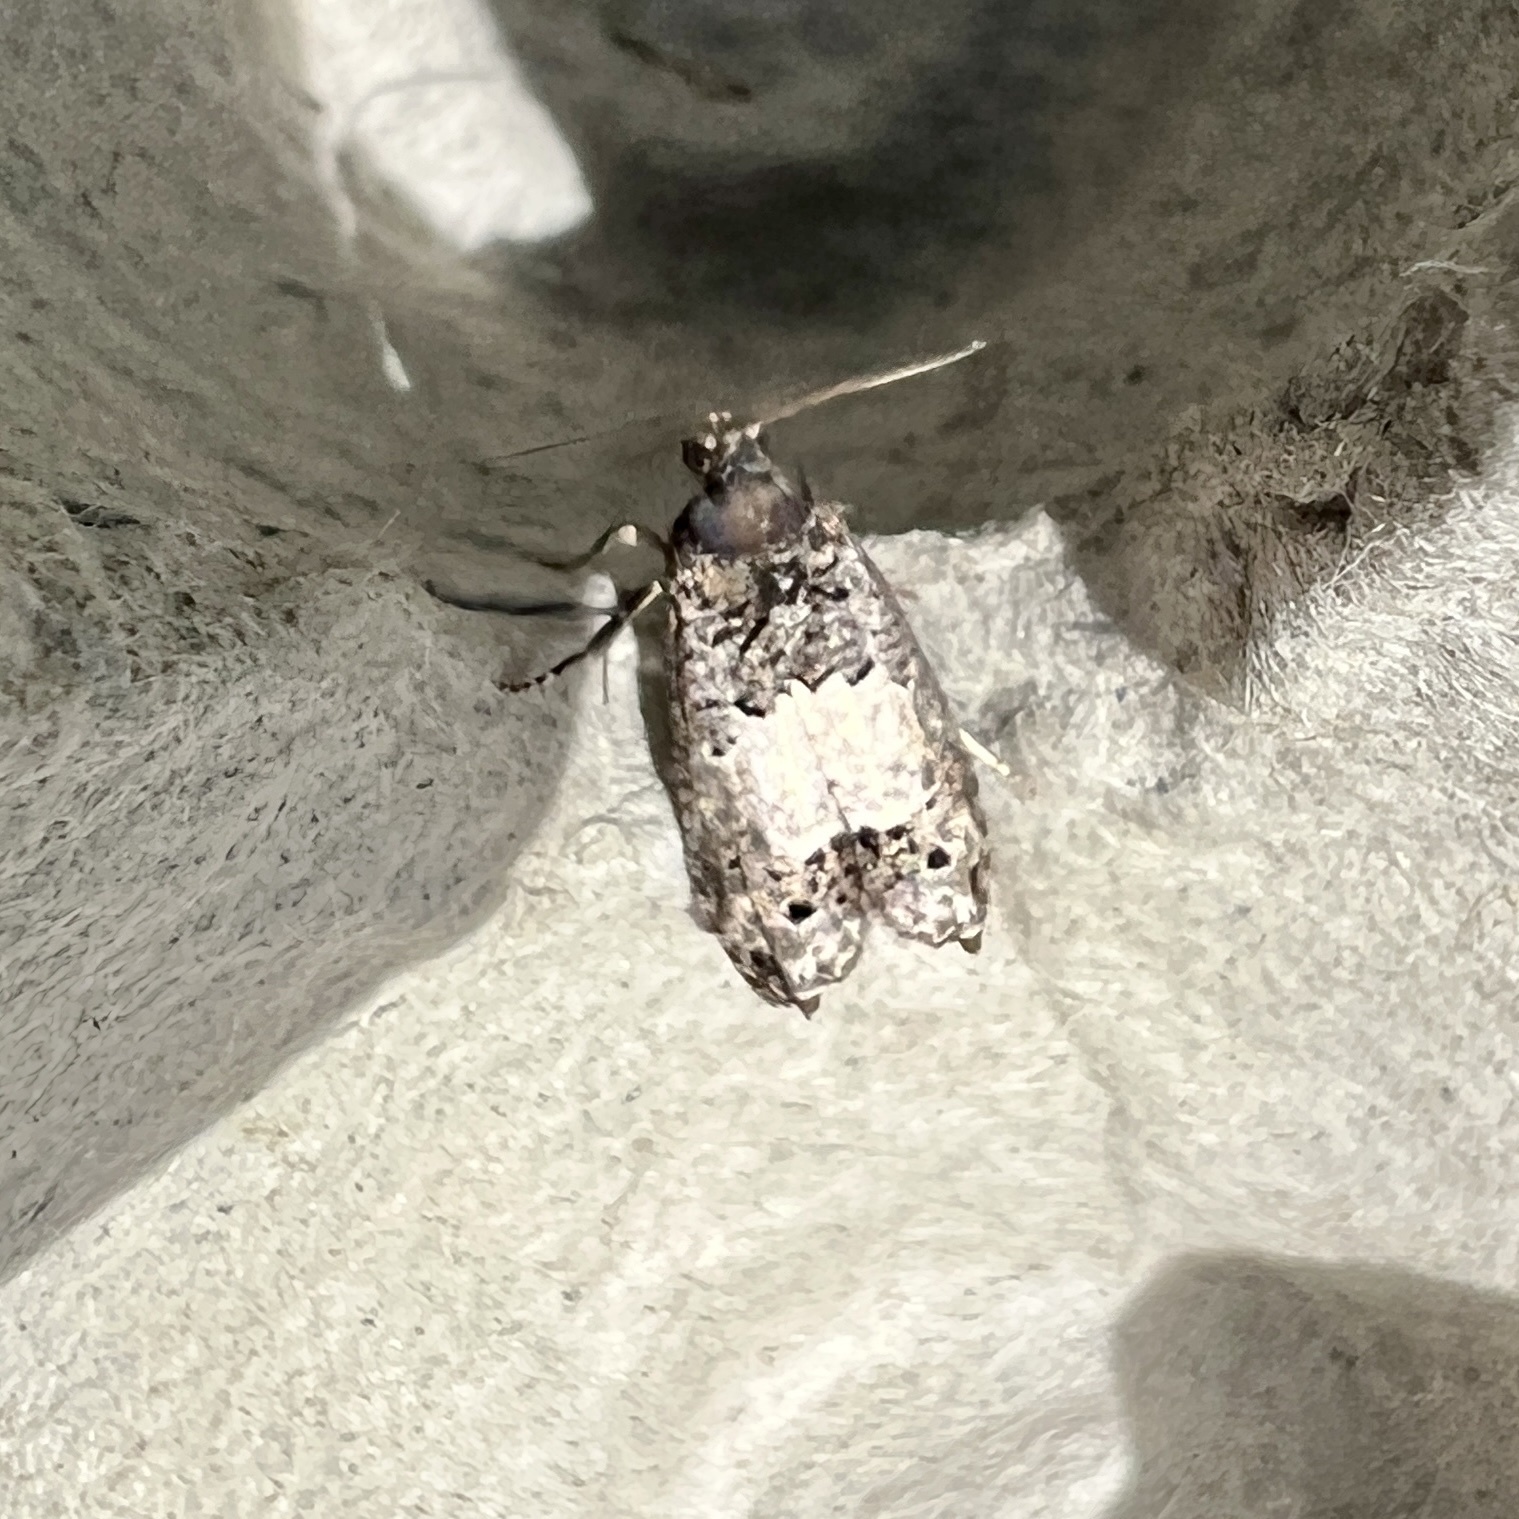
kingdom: Animalia
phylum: Arthropoda
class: Insecta
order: Lepidoptera
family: Tortricidae
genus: Epiblema
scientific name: Epiblema carolinana
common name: Gray-blotched epiblema moth
